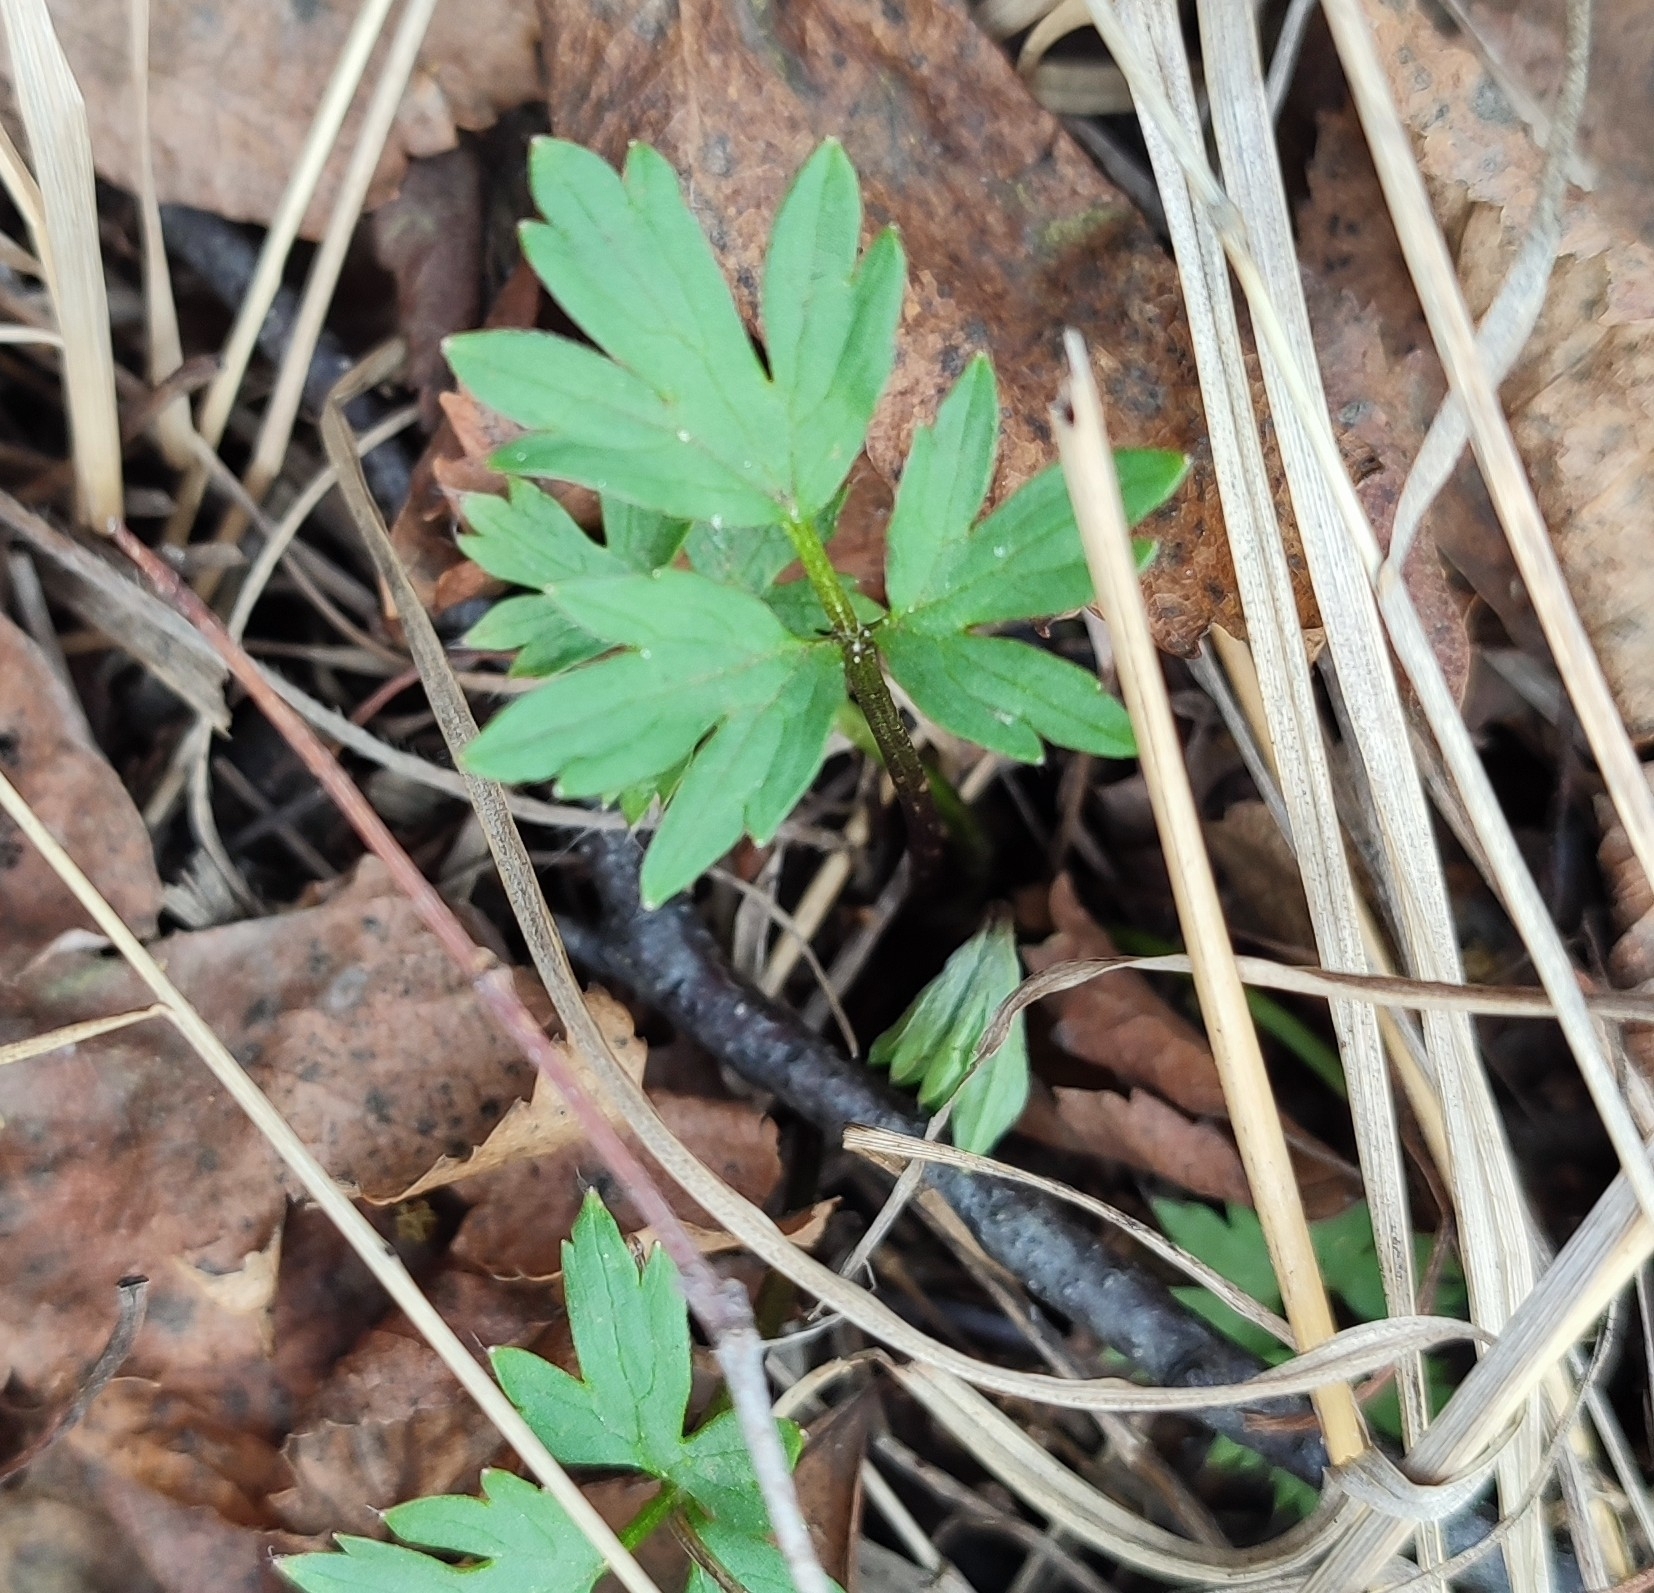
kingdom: Plantae
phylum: Tracheophyta
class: Magnoliopsida
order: Ranunculales
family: Ranunculaceae
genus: Ranunculus
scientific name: Ranunculus repens
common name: Creeping buttercup
